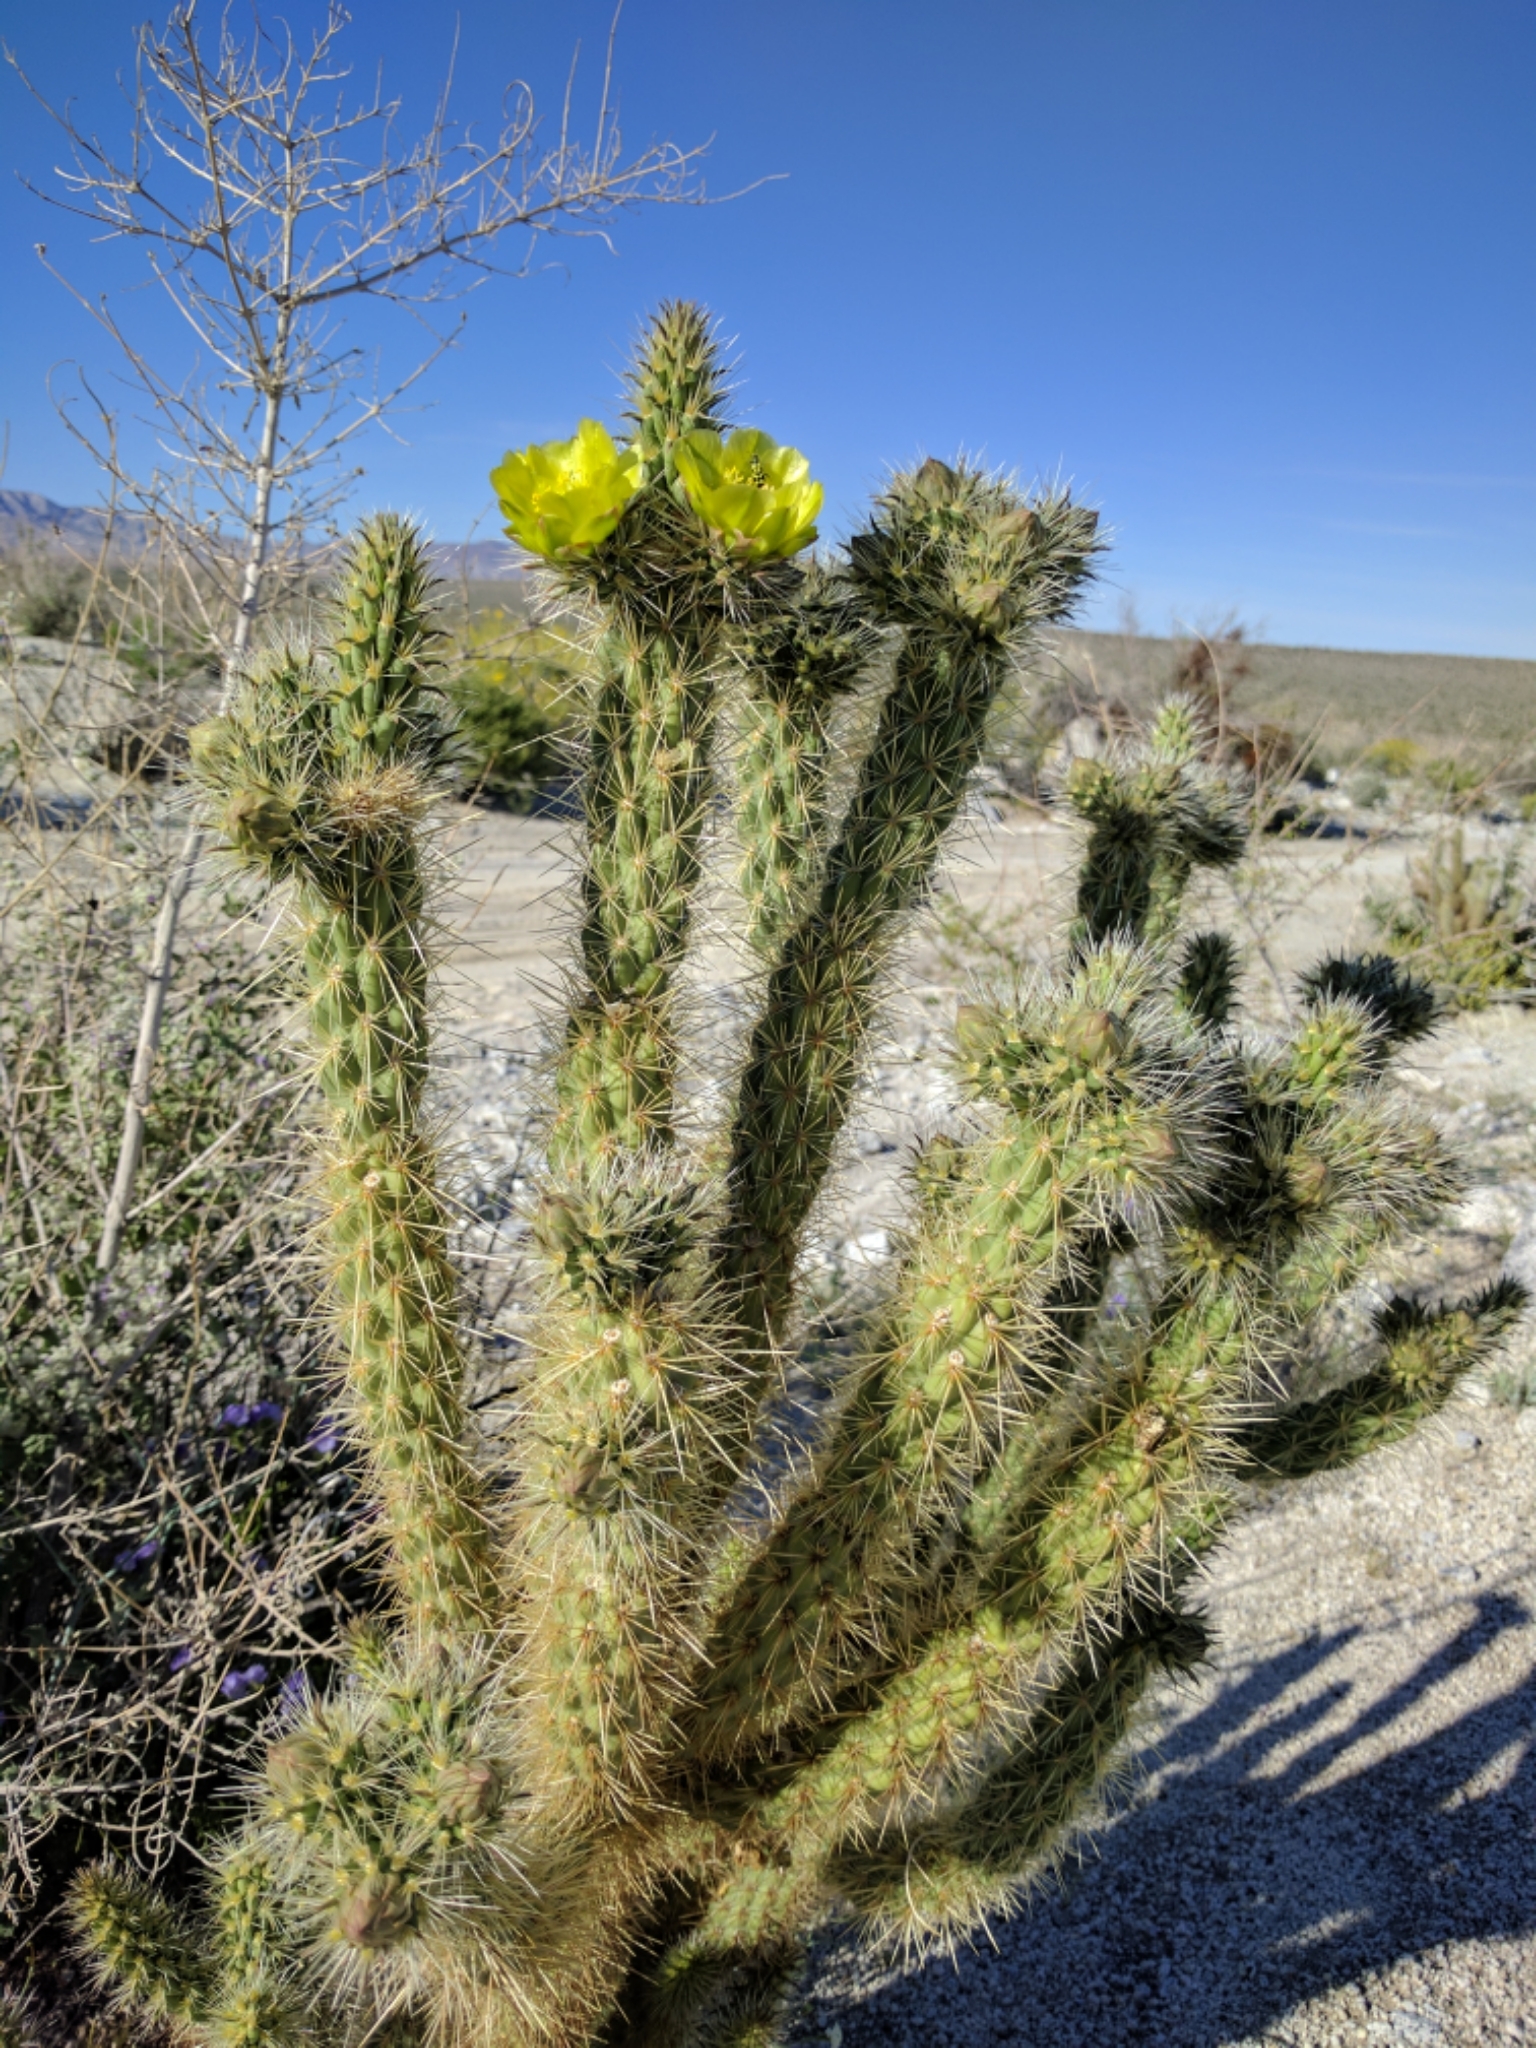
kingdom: Plantae
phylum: Tracheophyta
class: Magnoliopsida
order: Caryophyllales
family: Cactaceae
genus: Cylindropuntia
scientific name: Cylindropuntia ganderi
